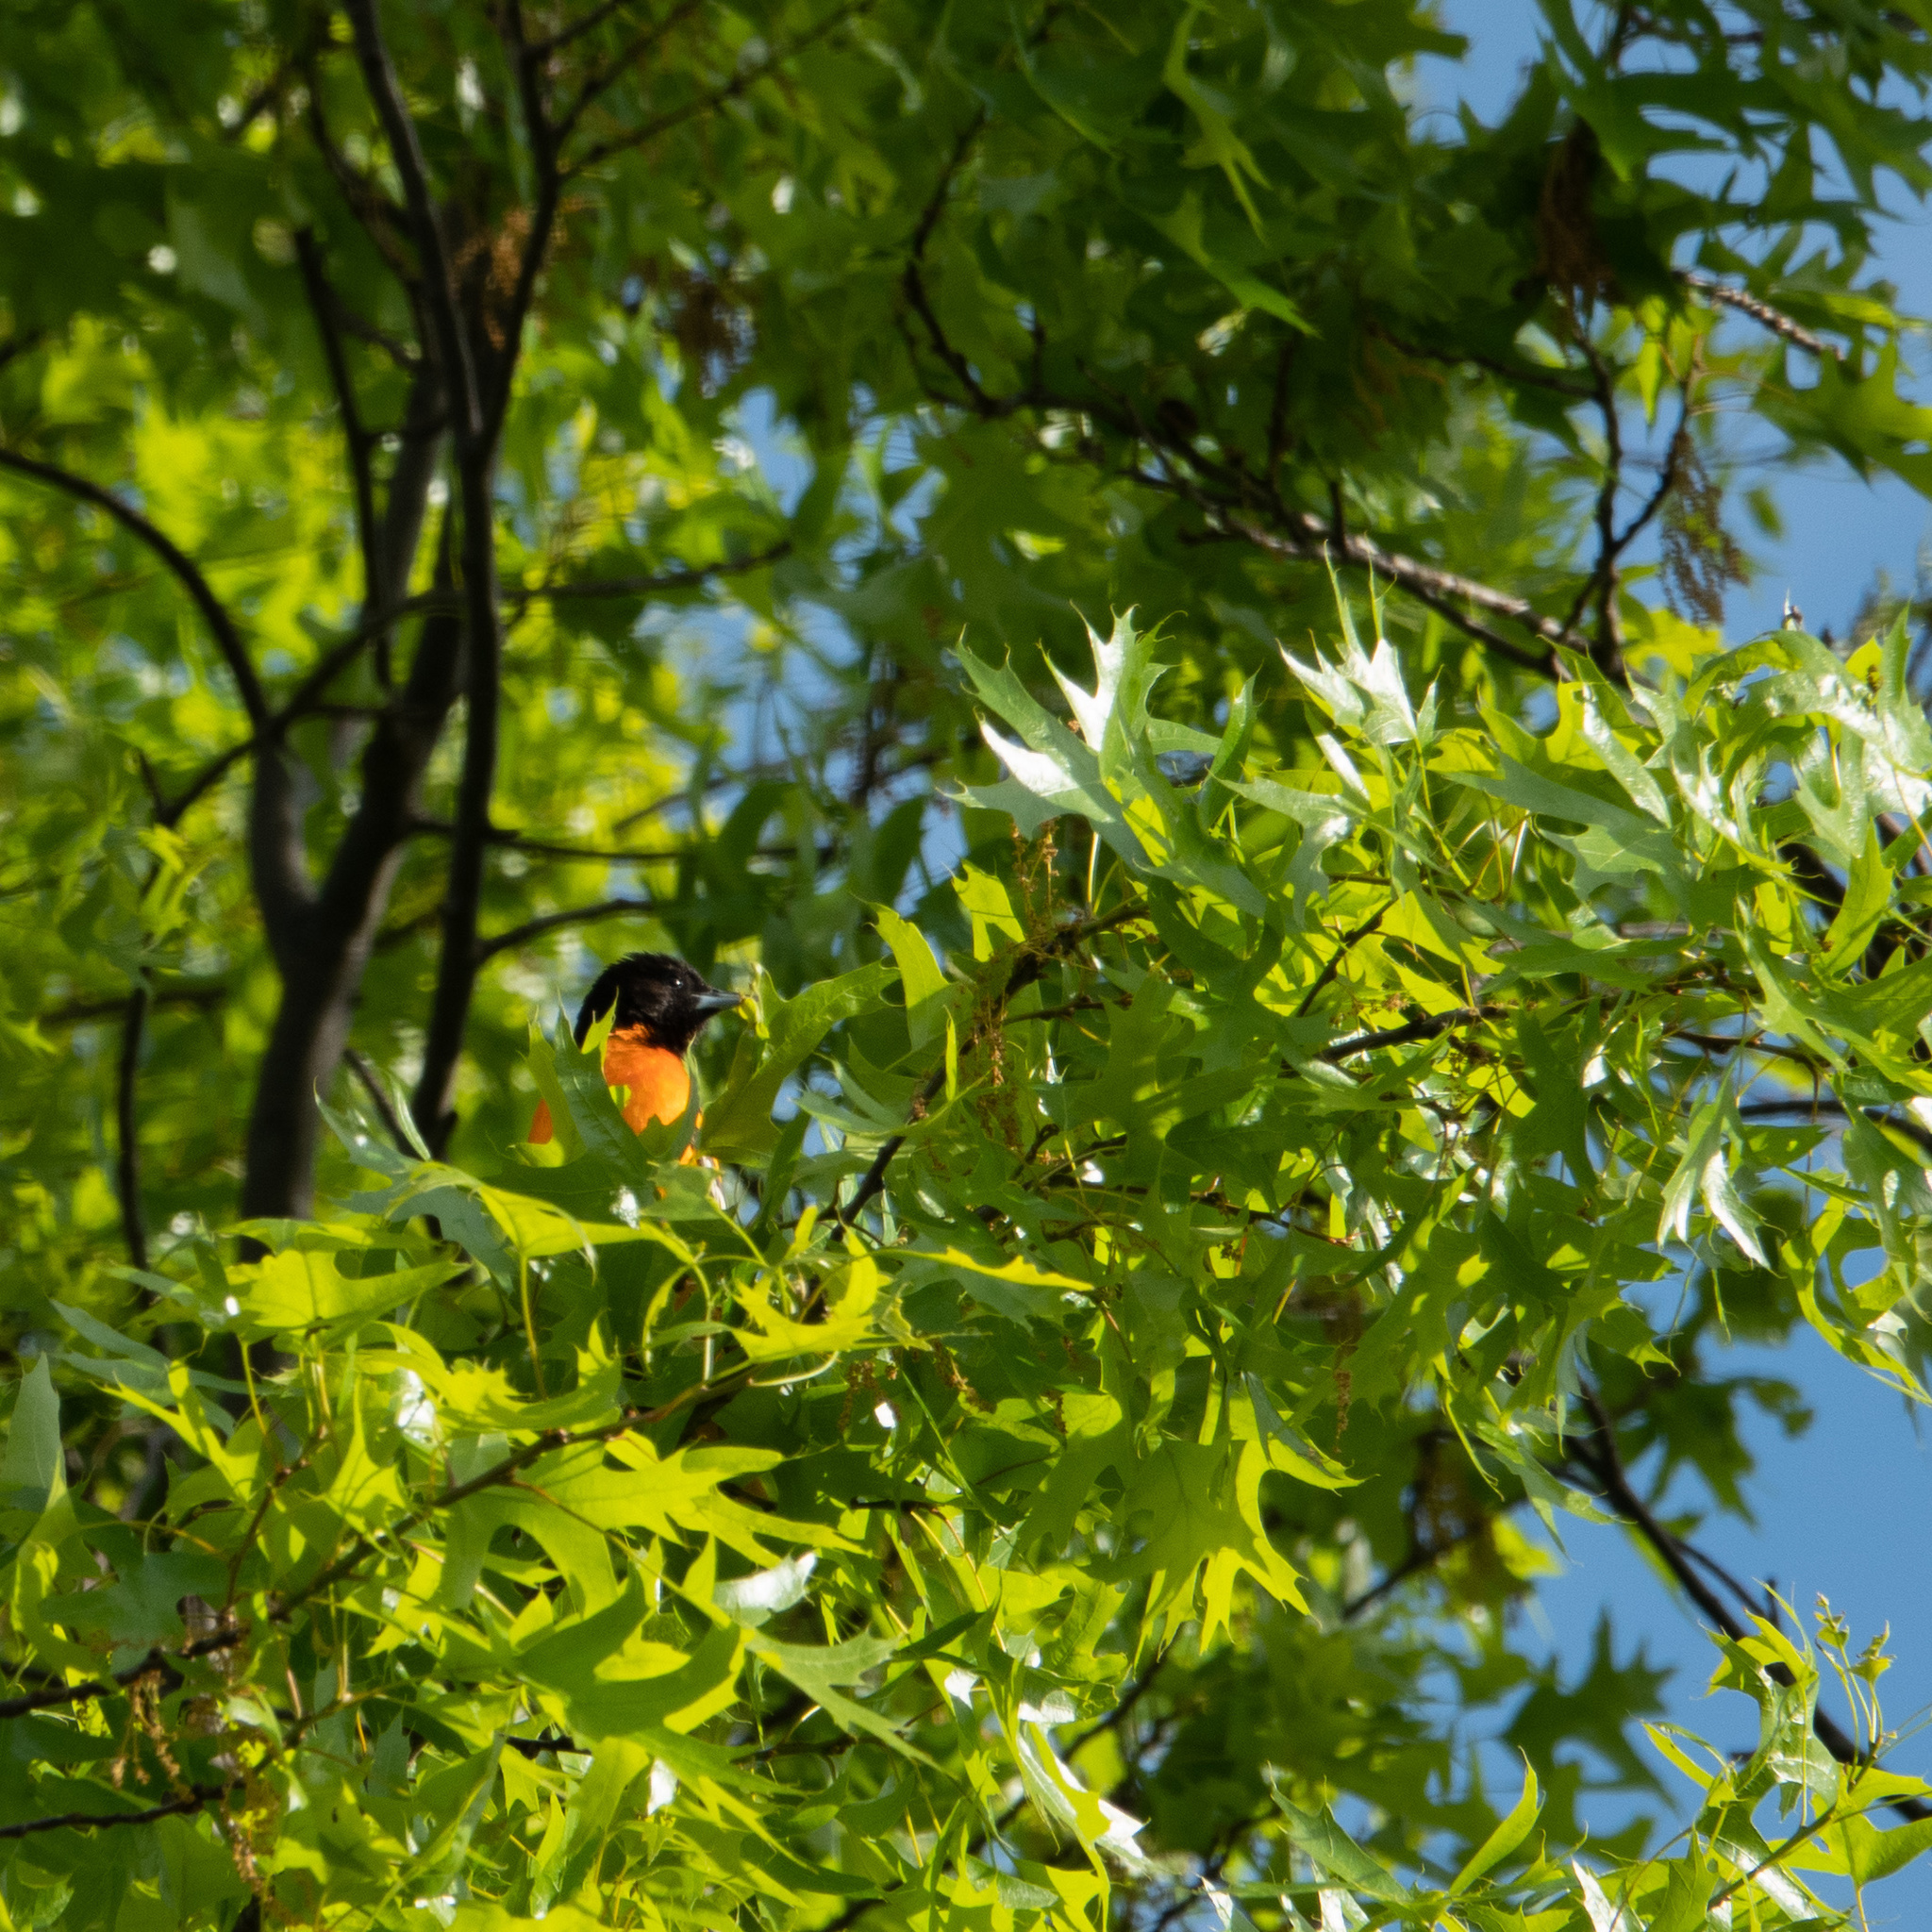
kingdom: Animalia
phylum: Chordata
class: Aves
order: Passeriformes
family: Icteridae
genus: Icterus
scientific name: Icterus galbula
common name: Baltimore oriole
